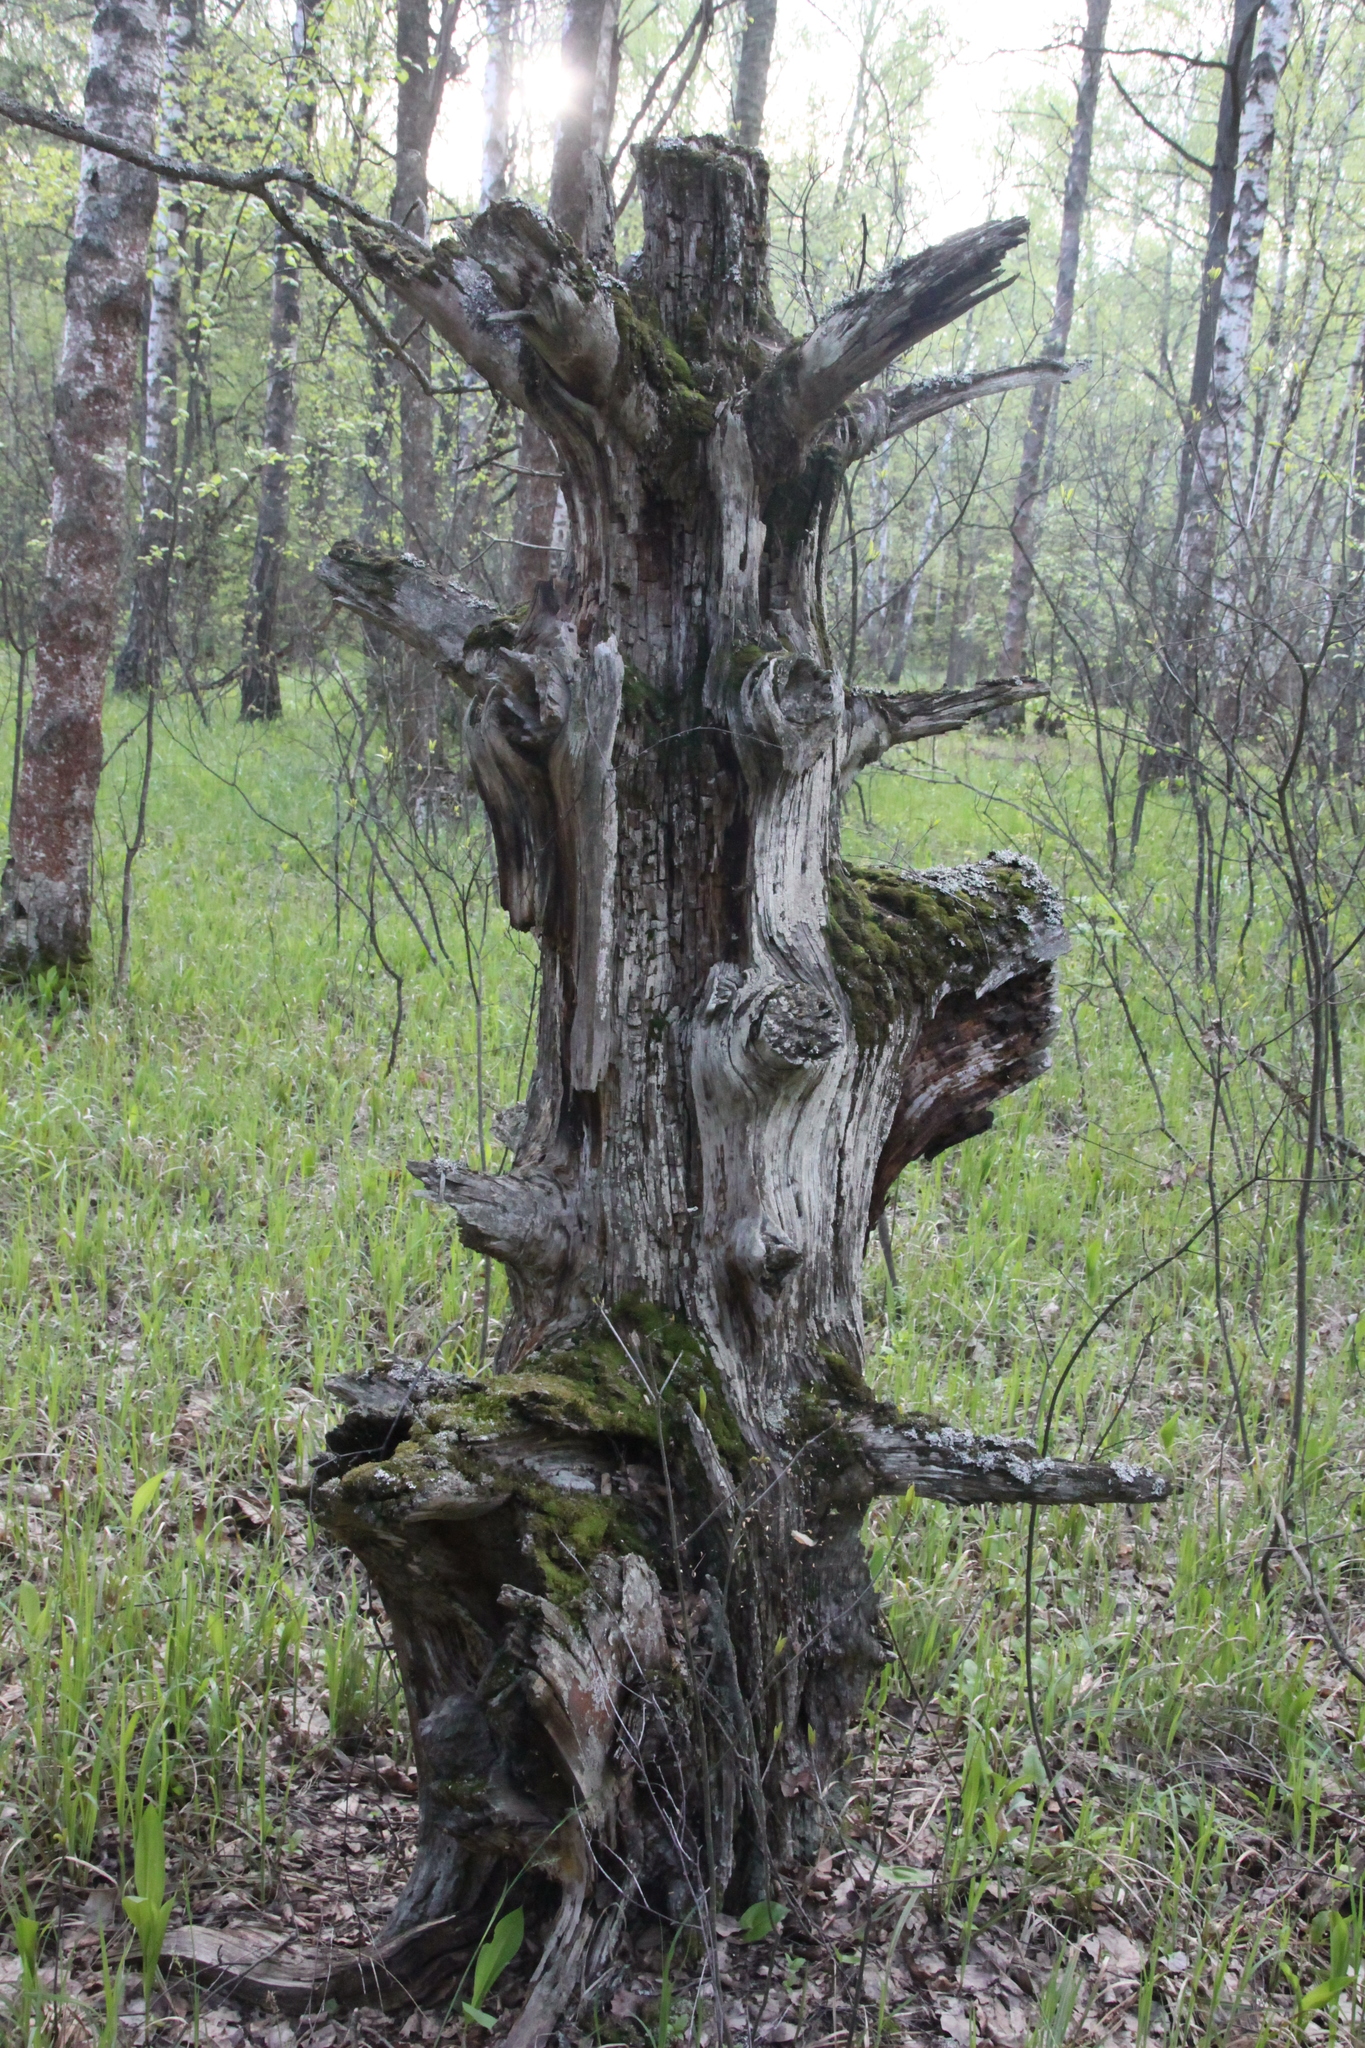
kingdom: Plantae
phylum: Tracheophyta
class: Pinopsida
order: Pinales
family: Pinaceae
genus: Pinus
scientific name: Pinus sylvestris
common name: Scots pine
